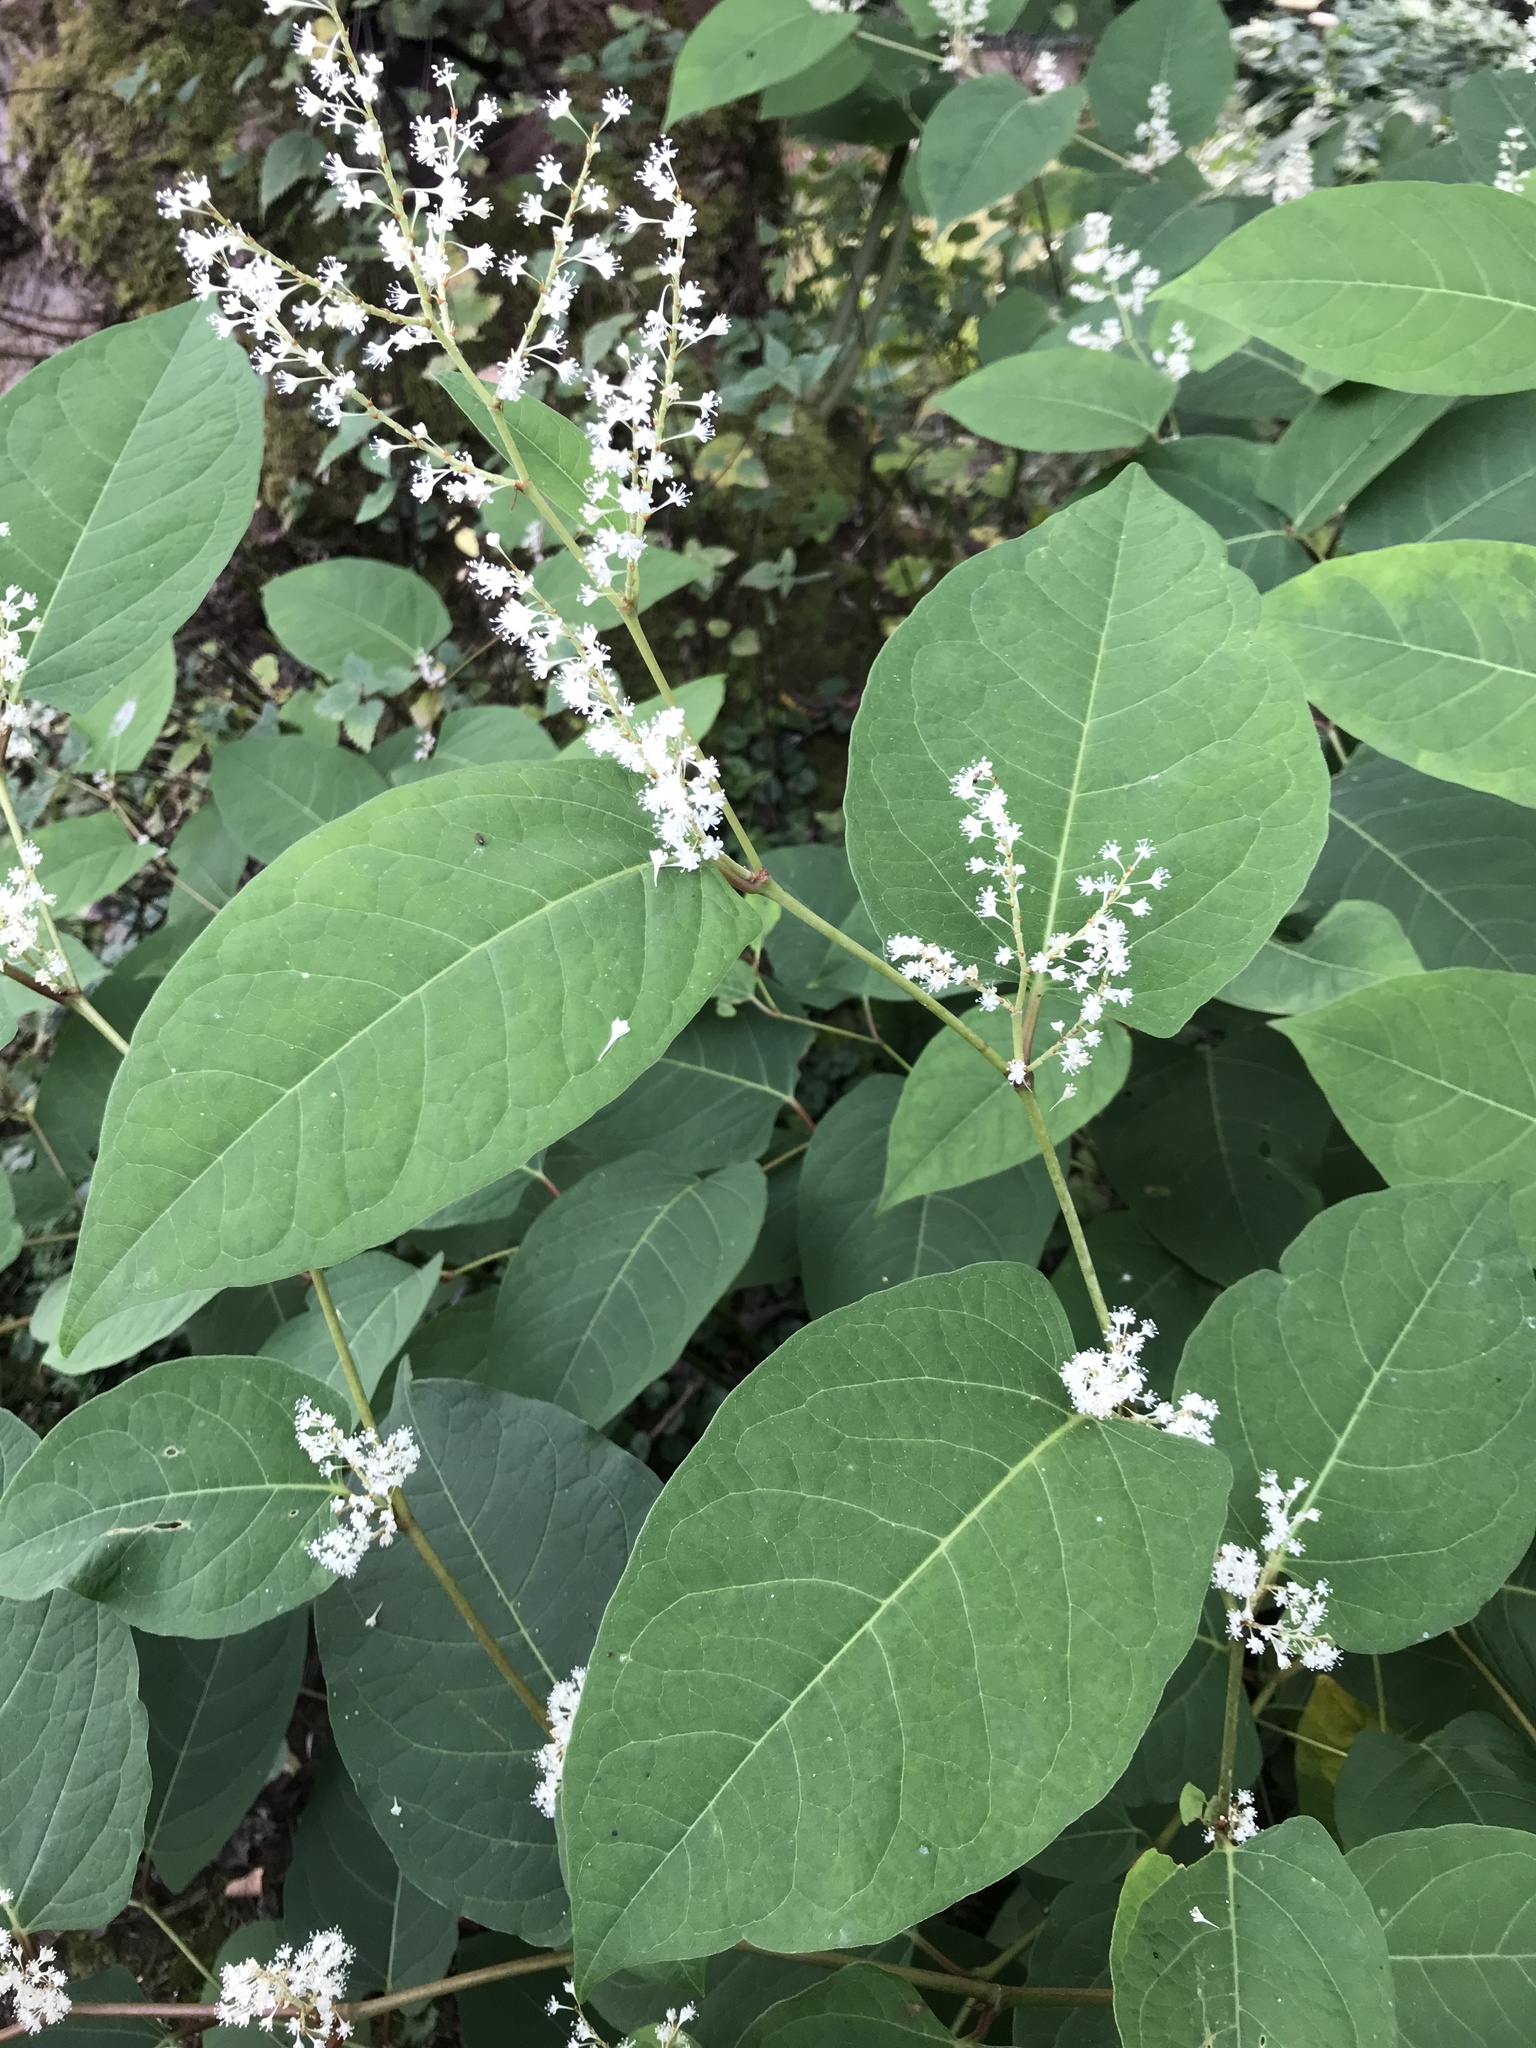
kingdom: Plantae
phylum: Tracheophyta
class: Magnoliopsida
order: Caryophyllales
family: Polygonaceae
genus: Reynoutria
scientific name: Reynoutria bohemica
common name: Bohemian knotweed
